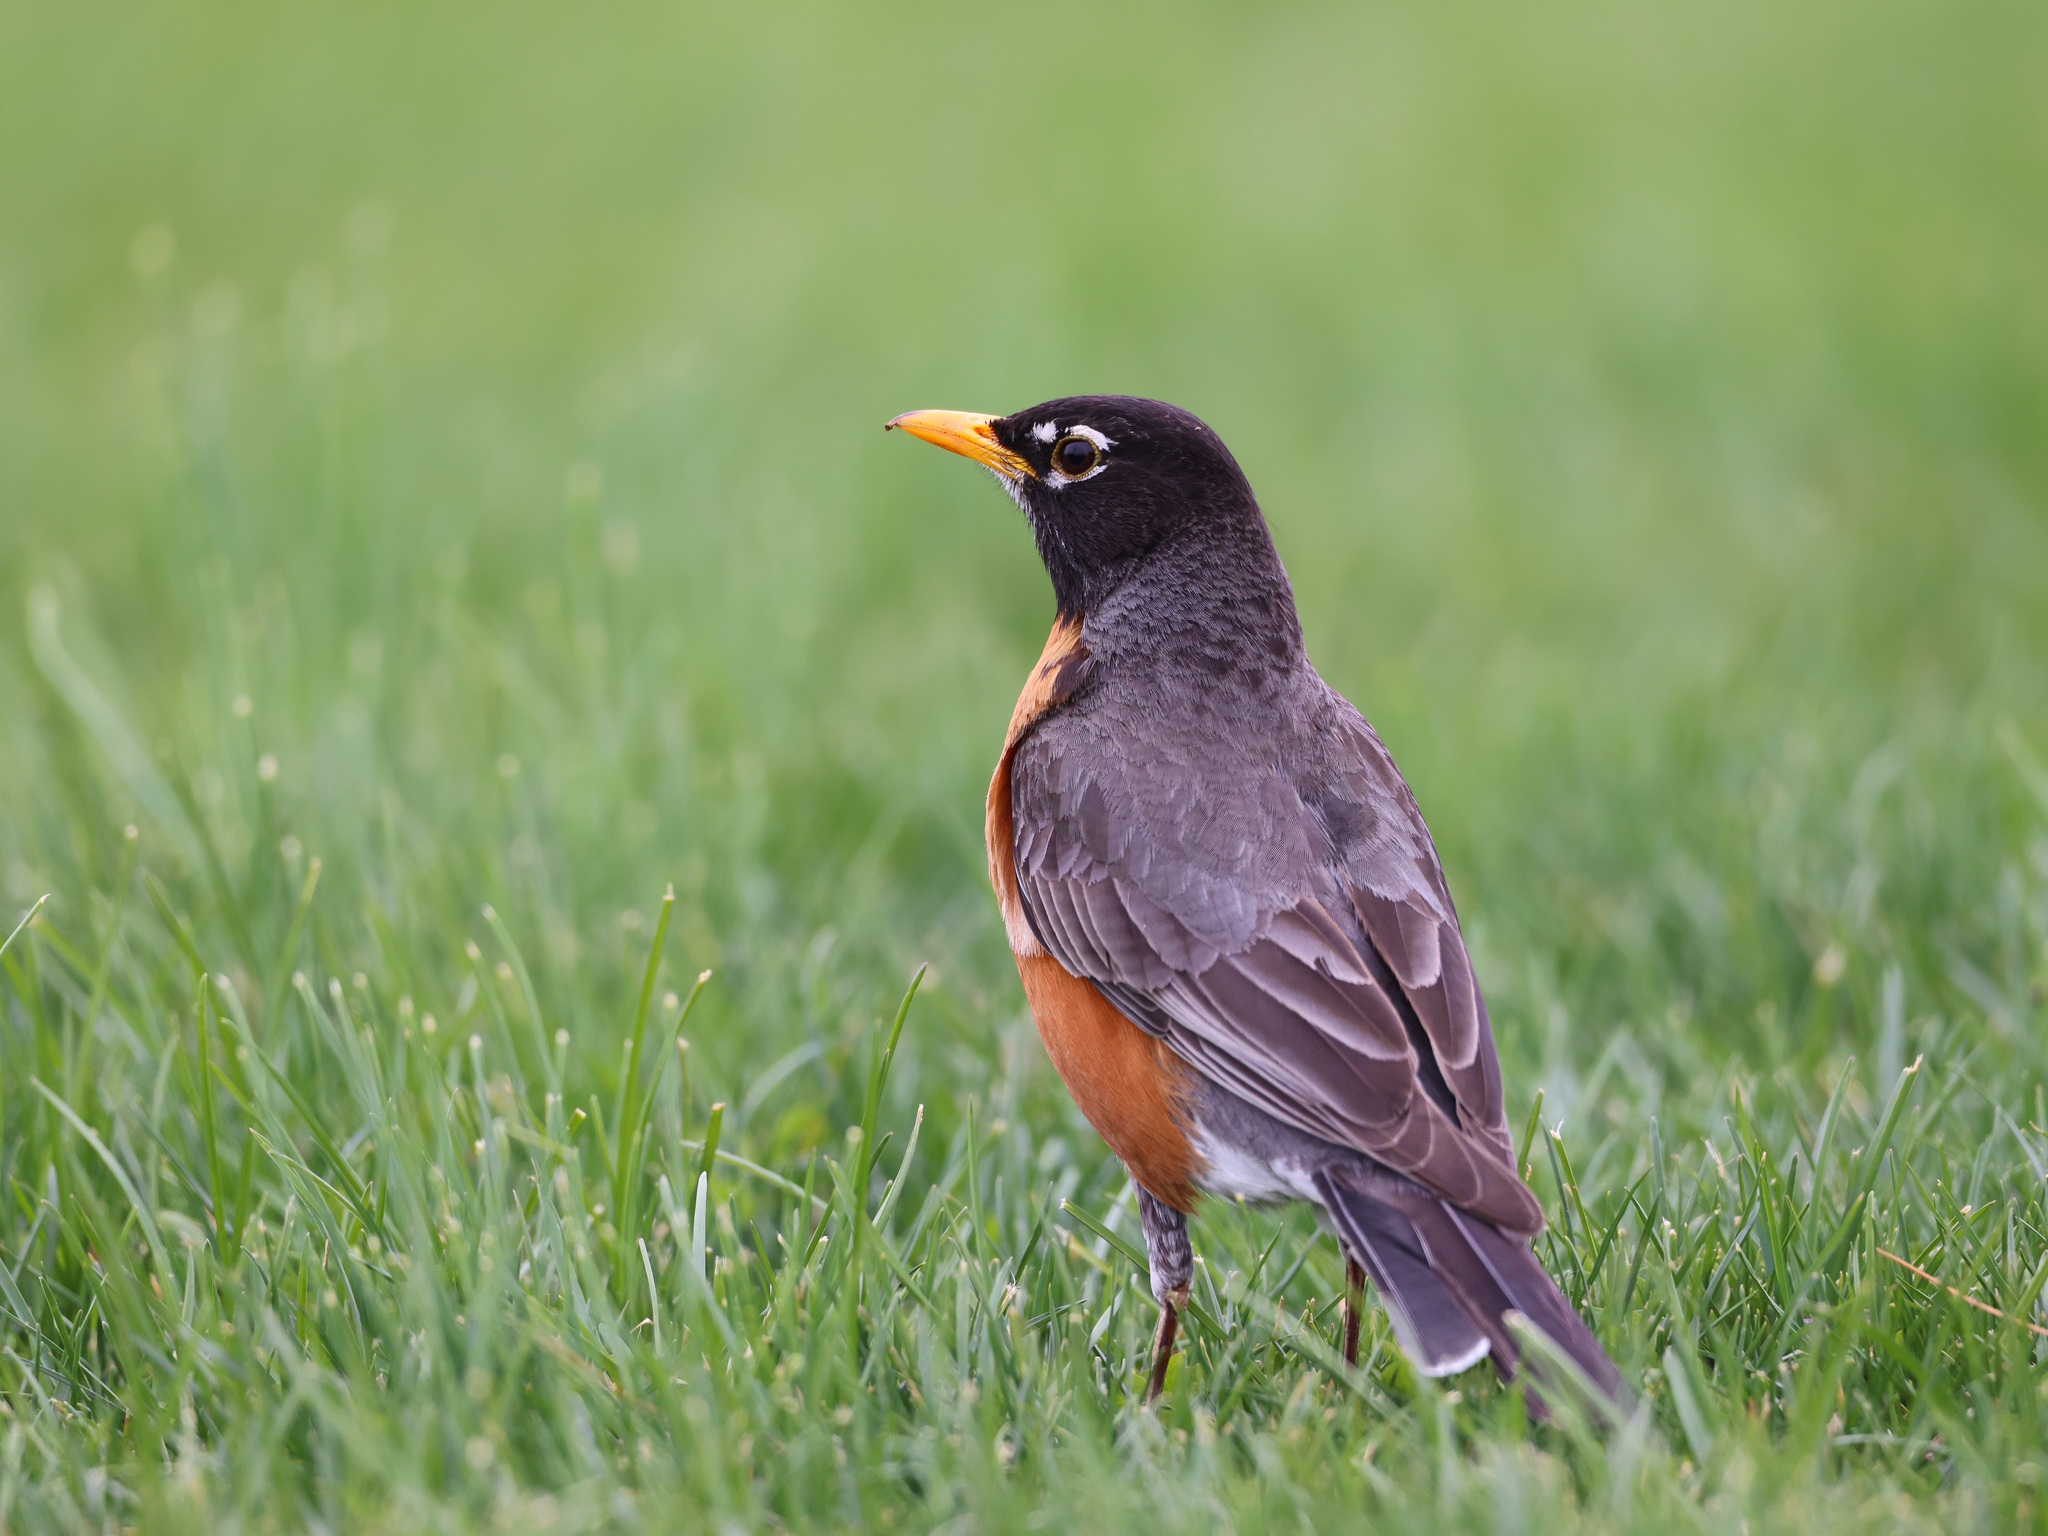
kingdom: Animalia
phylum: Chordata
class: Aves
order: Passeriformes
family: Turdidae
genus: Turdus
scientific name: Turdus migratorius
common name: American robin
